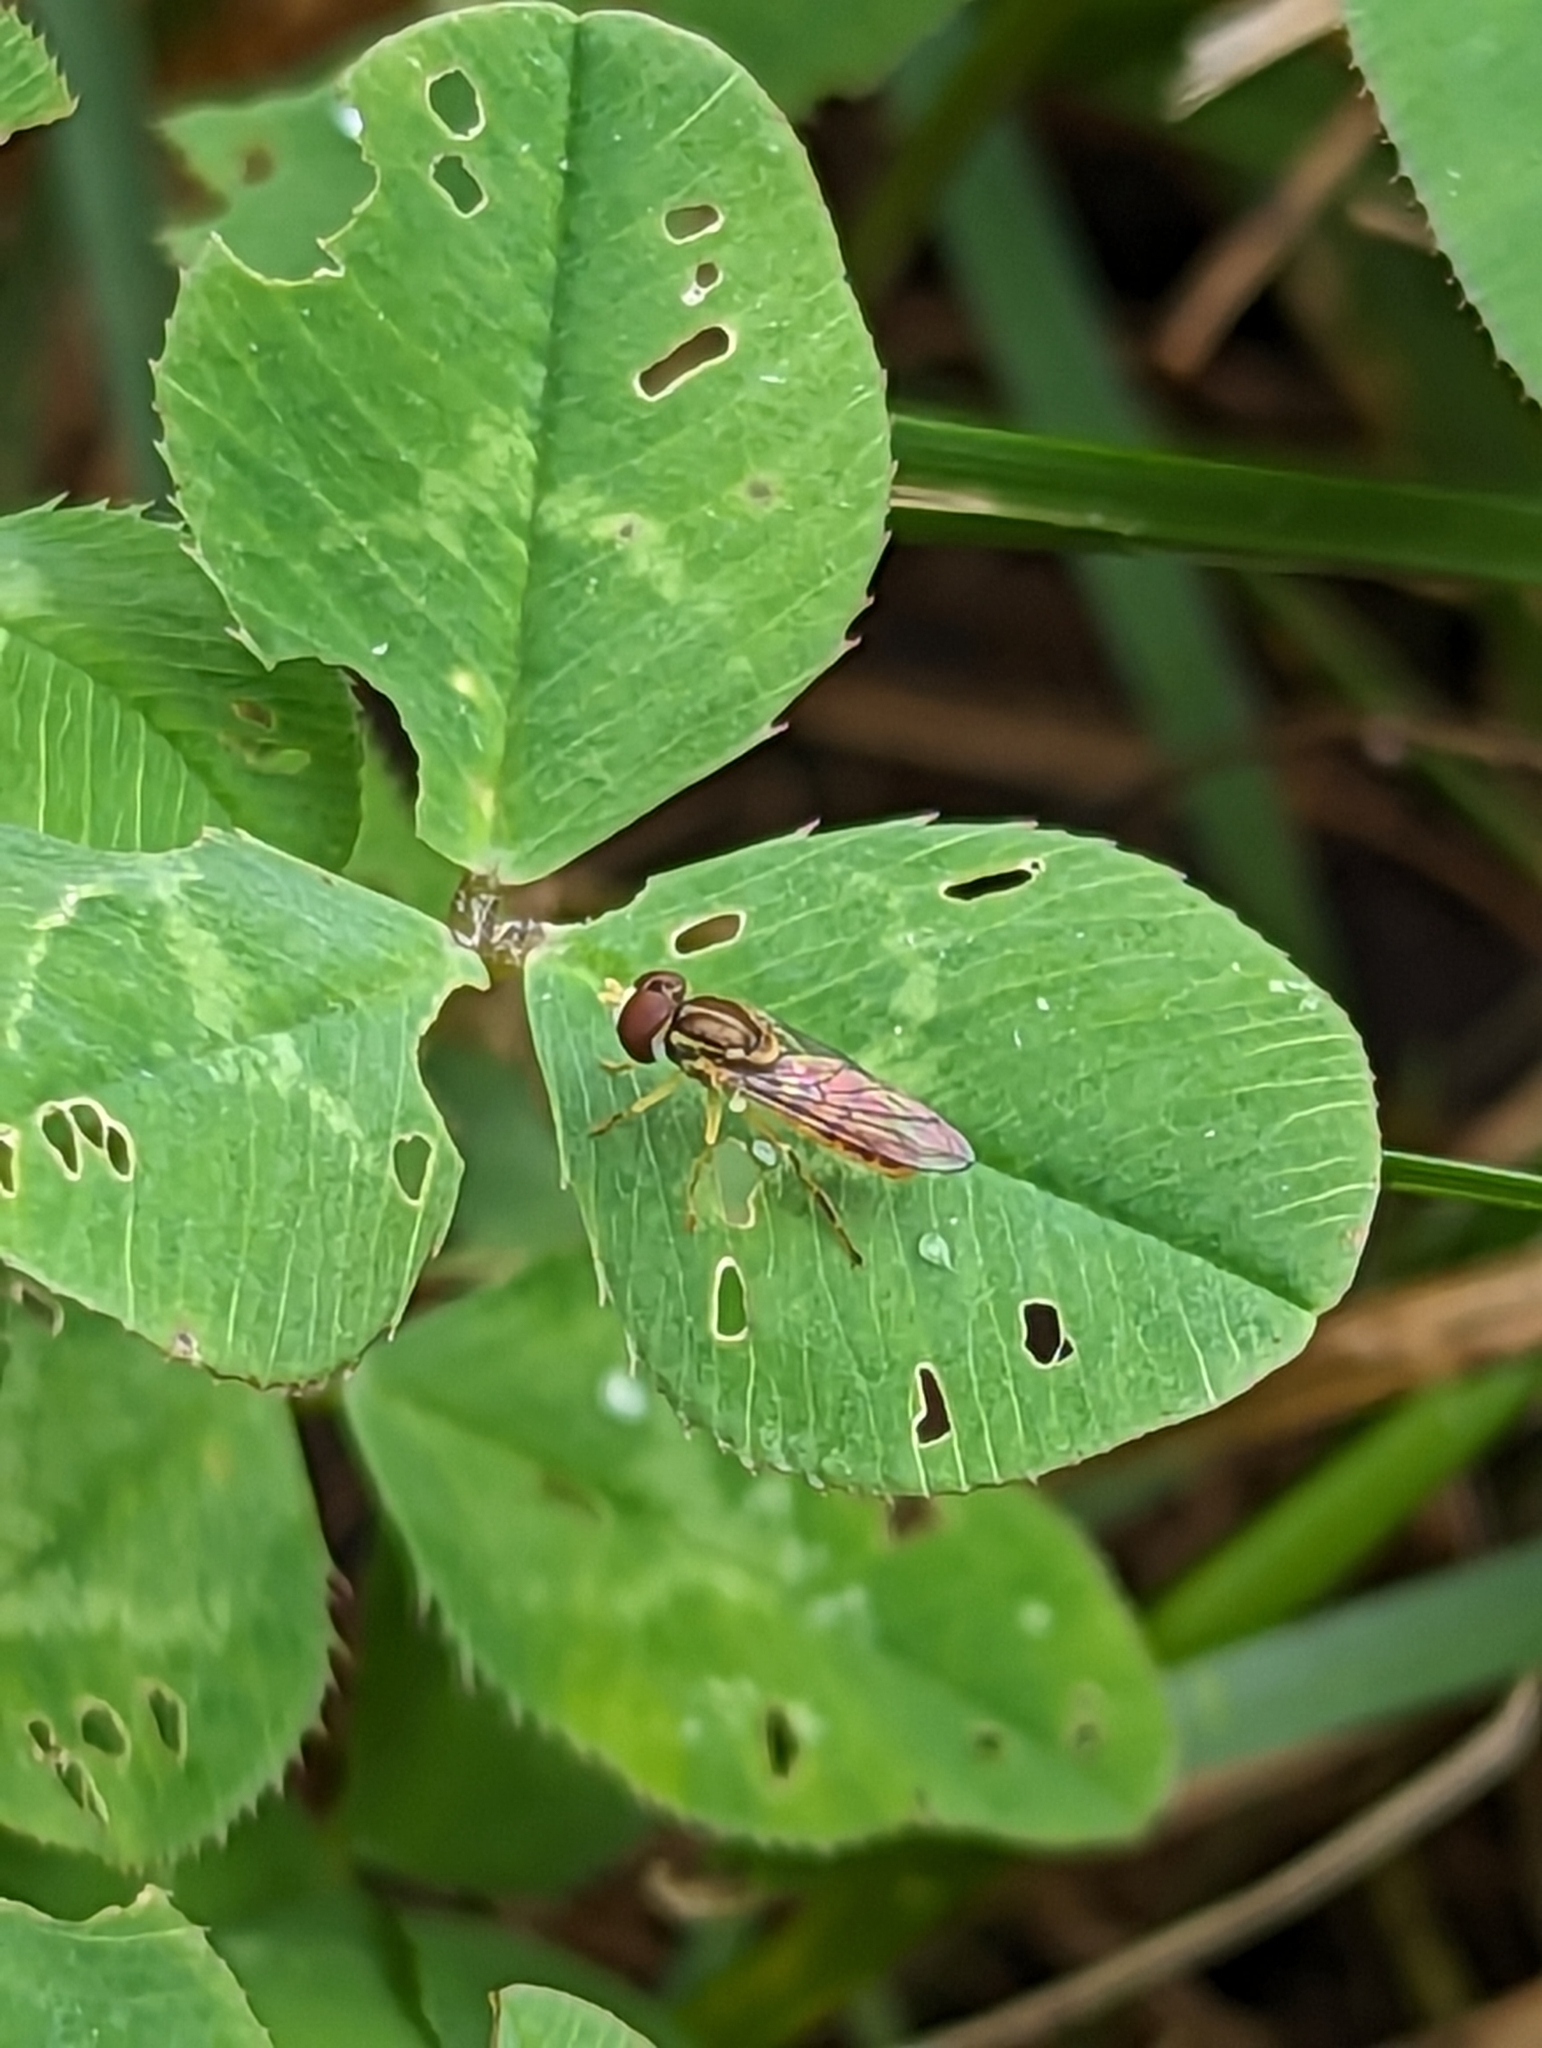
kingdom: Animalia
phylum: Arthropoda
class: Insecta
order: Diptera
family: Syrphidae
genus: Toxomerus
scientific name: Toxomerus marginatus
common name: Syrphid fly
